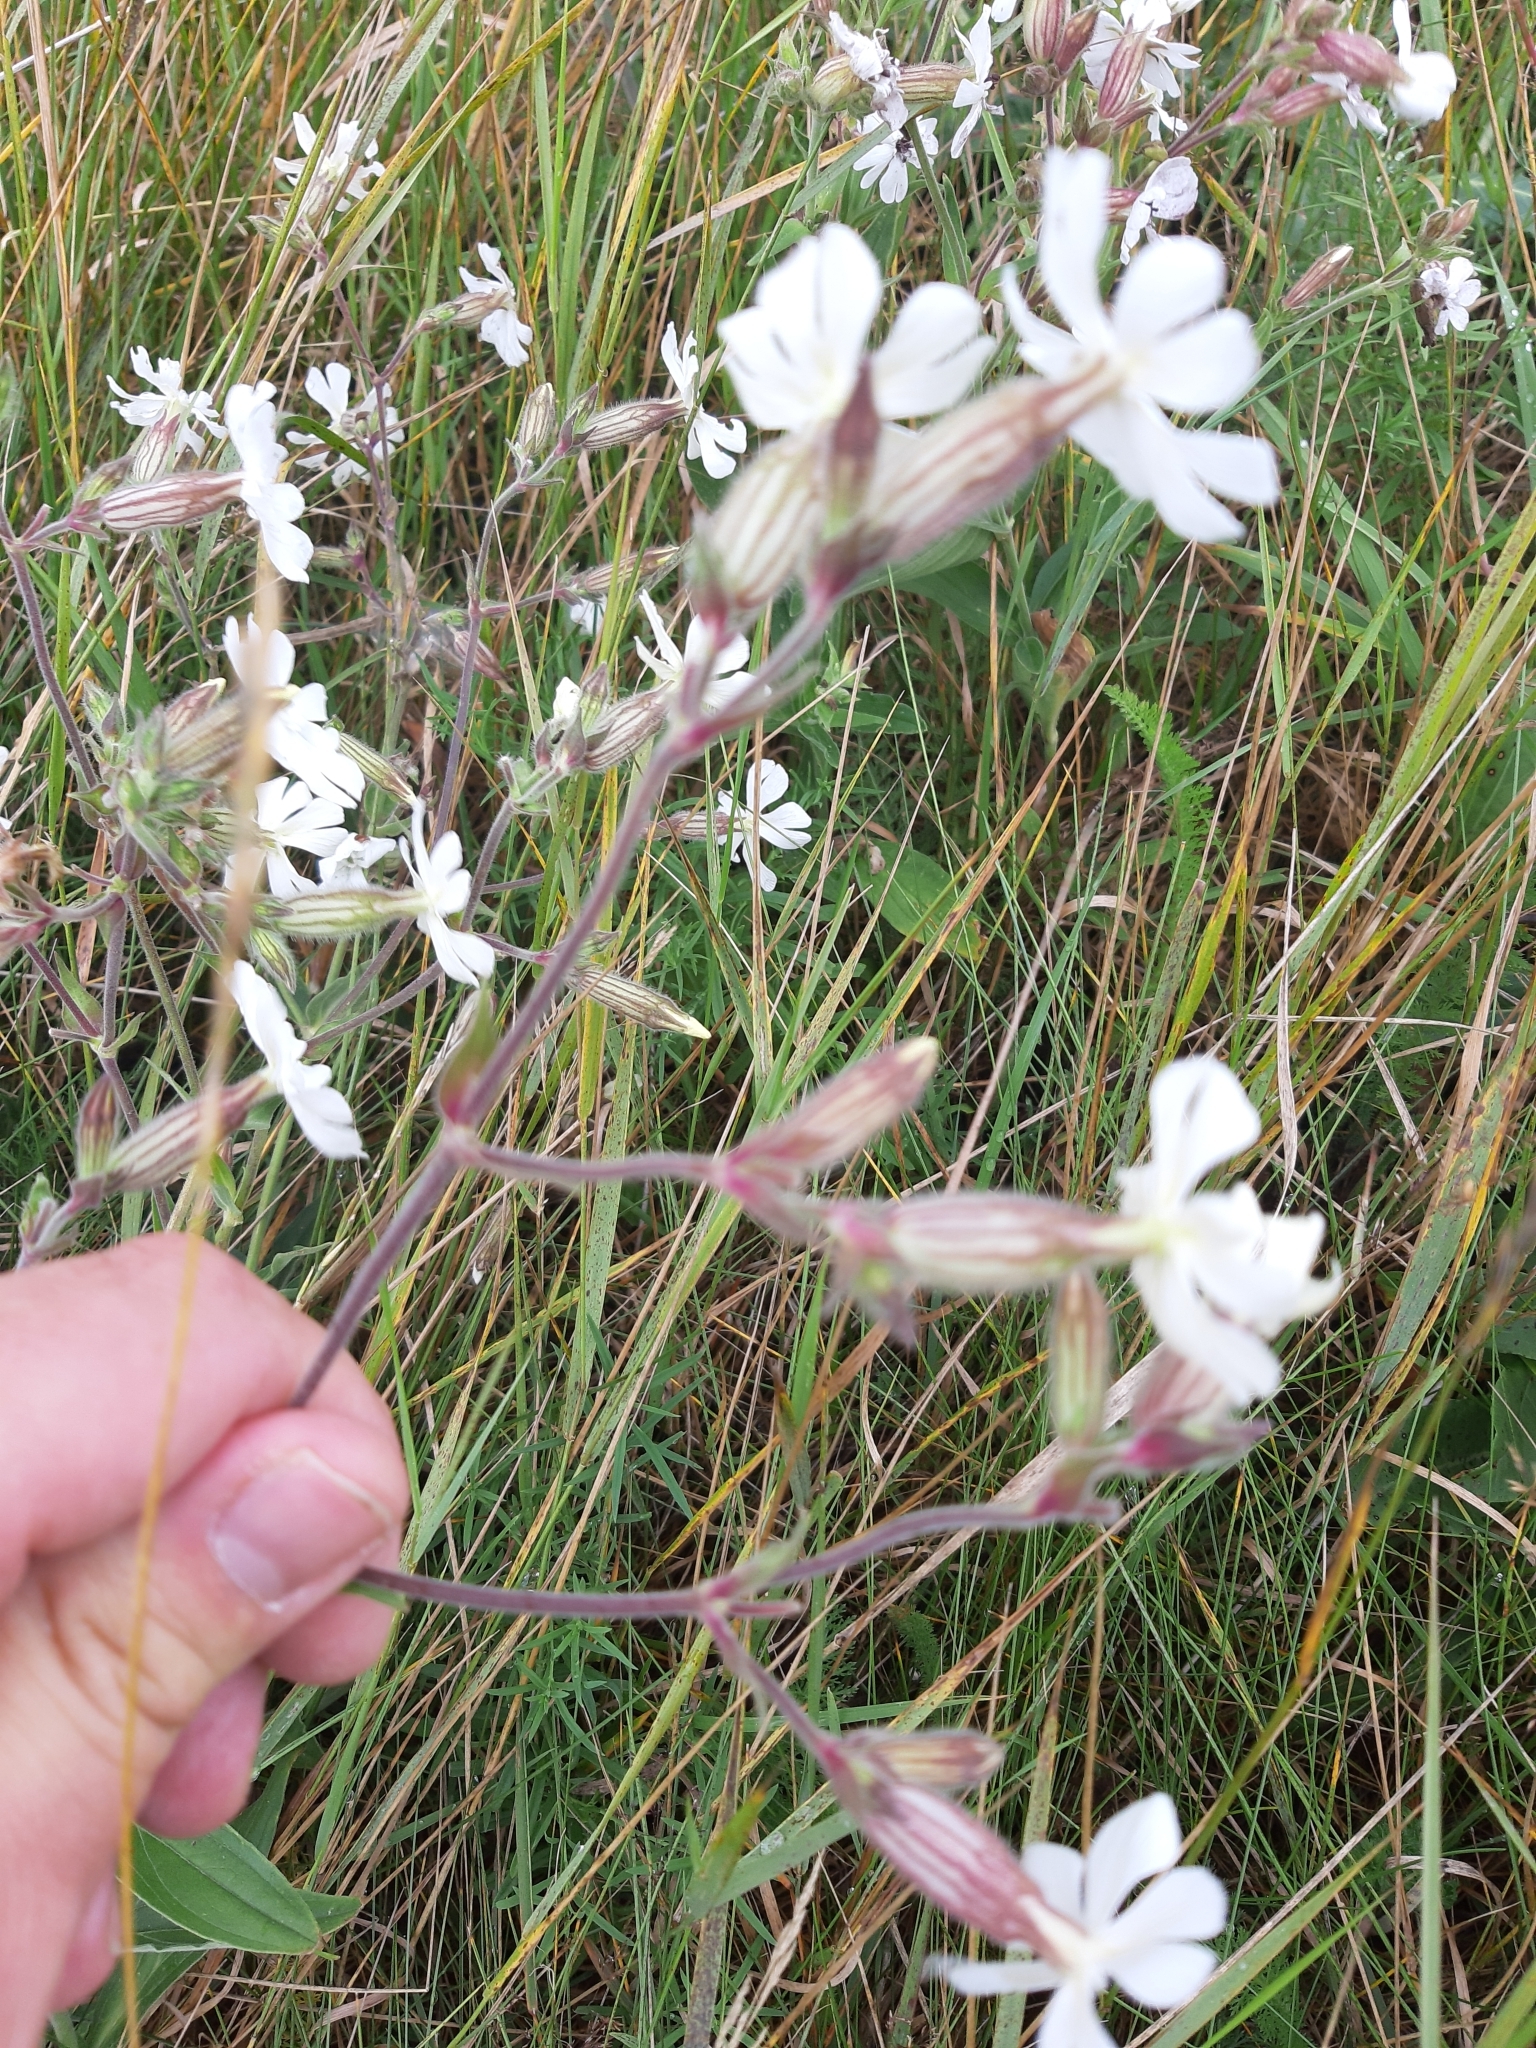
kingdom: Plantae
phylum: Tracheophyta
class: Magnoliopsida
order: Caryophyllales
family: Caryophyllaceae
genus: Silene
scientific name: Silene latifolia
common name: White campion
